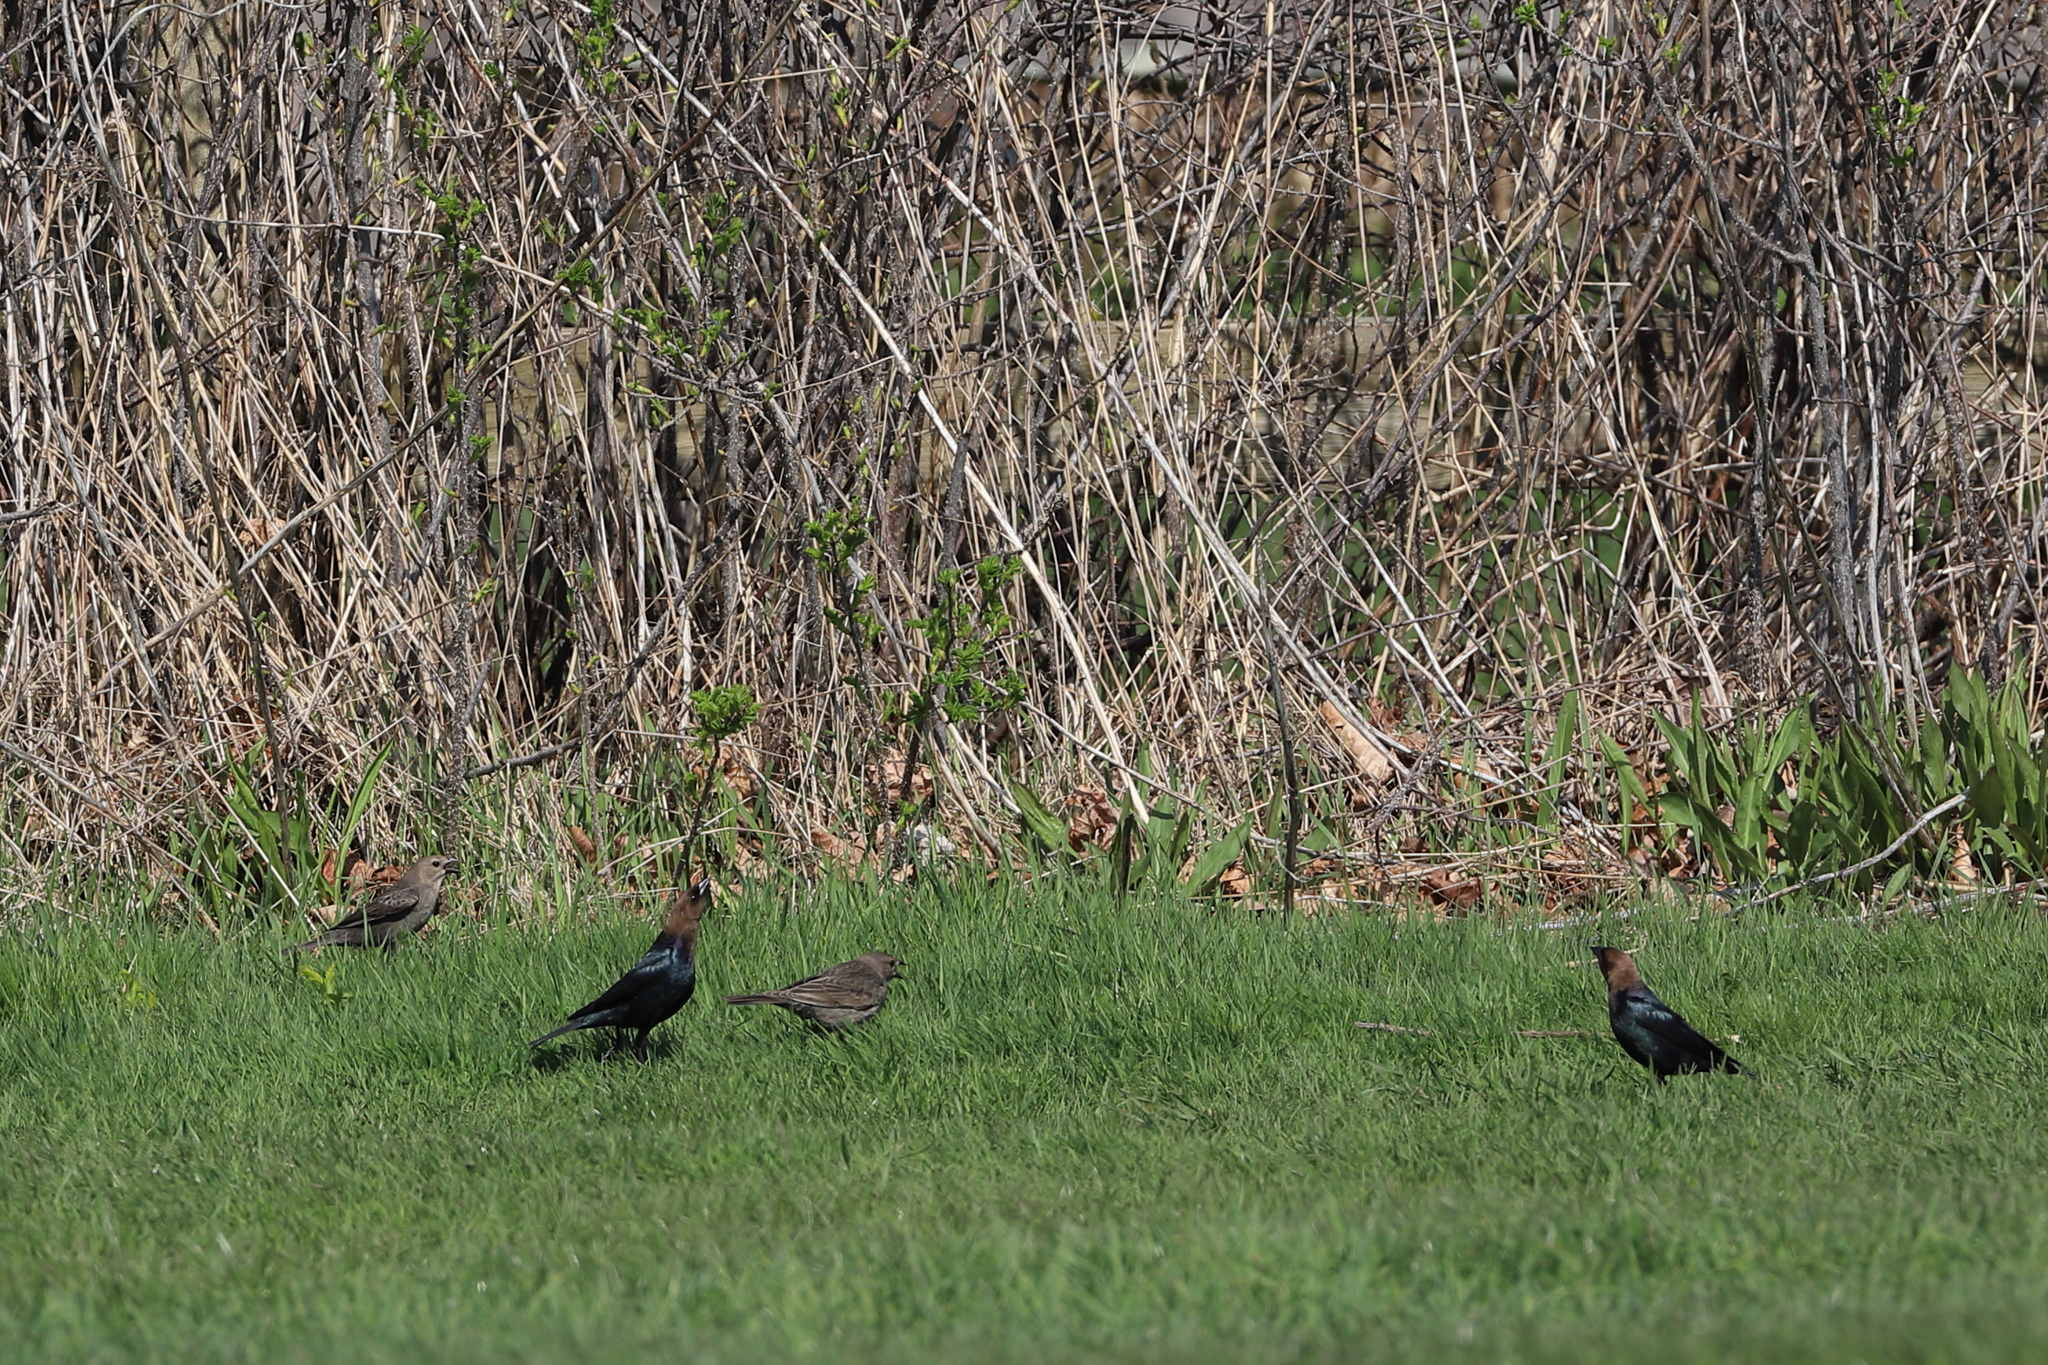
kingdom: Animalia
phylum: Chordata
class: Aves
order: Passeriformes
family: Icteridae
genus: Molothrus
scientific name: Molothrus ater
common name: Brown-headed cowbird
